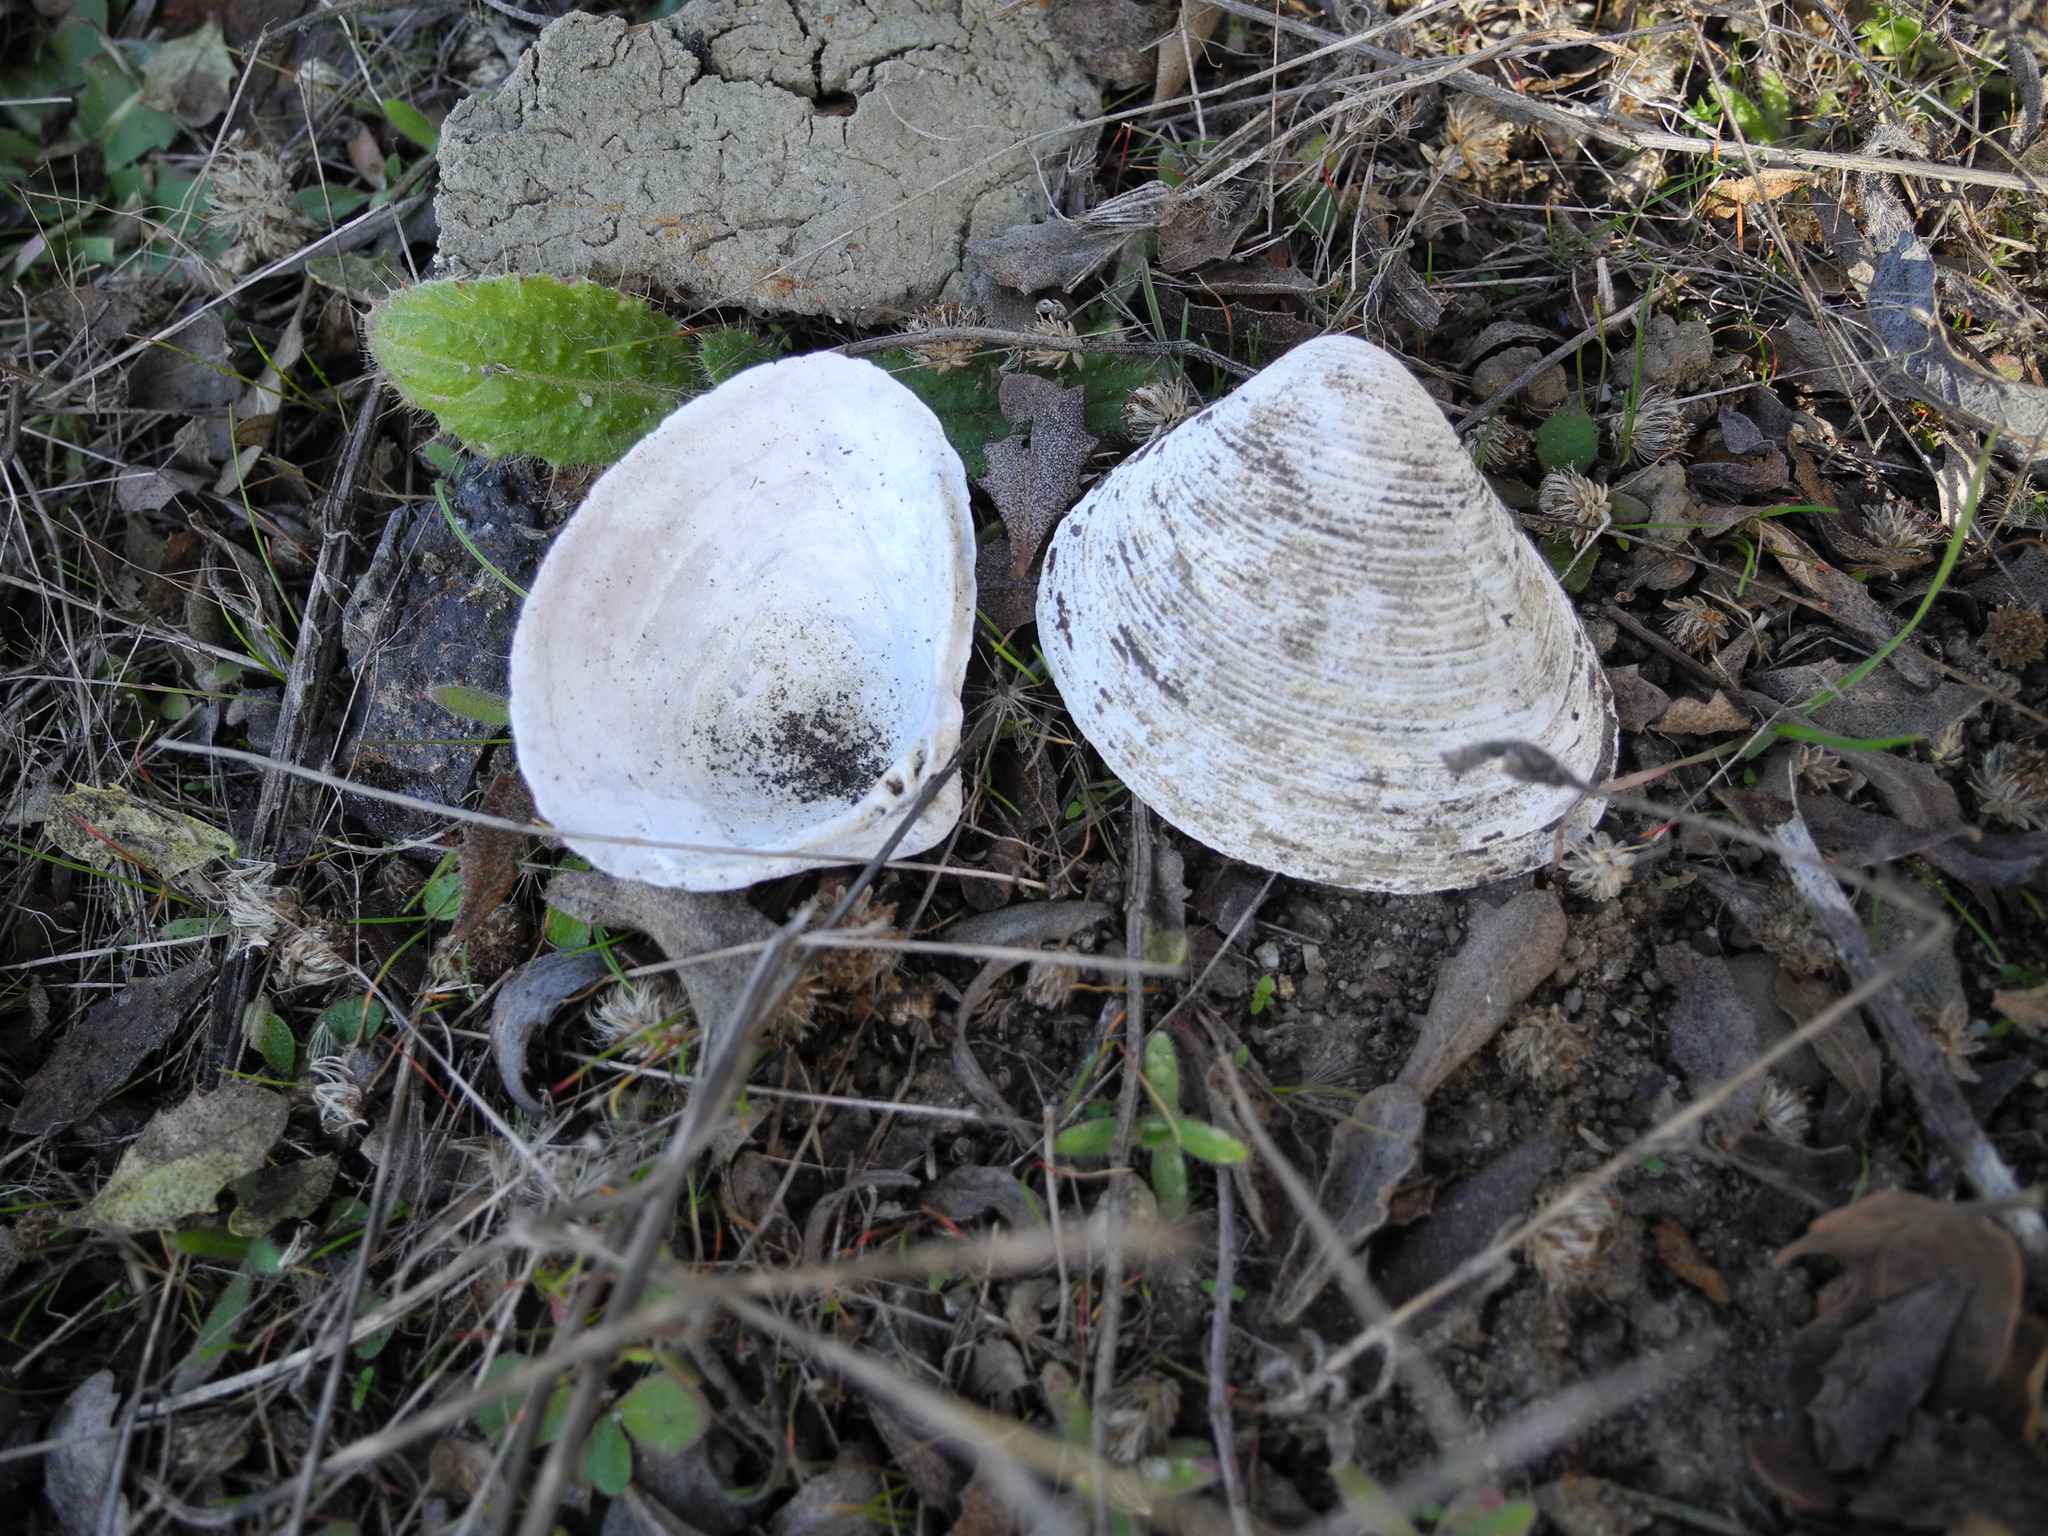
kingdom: Animalia
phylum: Mollusca
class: Bivalvia
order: Venerida
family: Cyrenidae
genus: Corbicula
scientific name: Corbicula fluminea
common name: Asian clam
